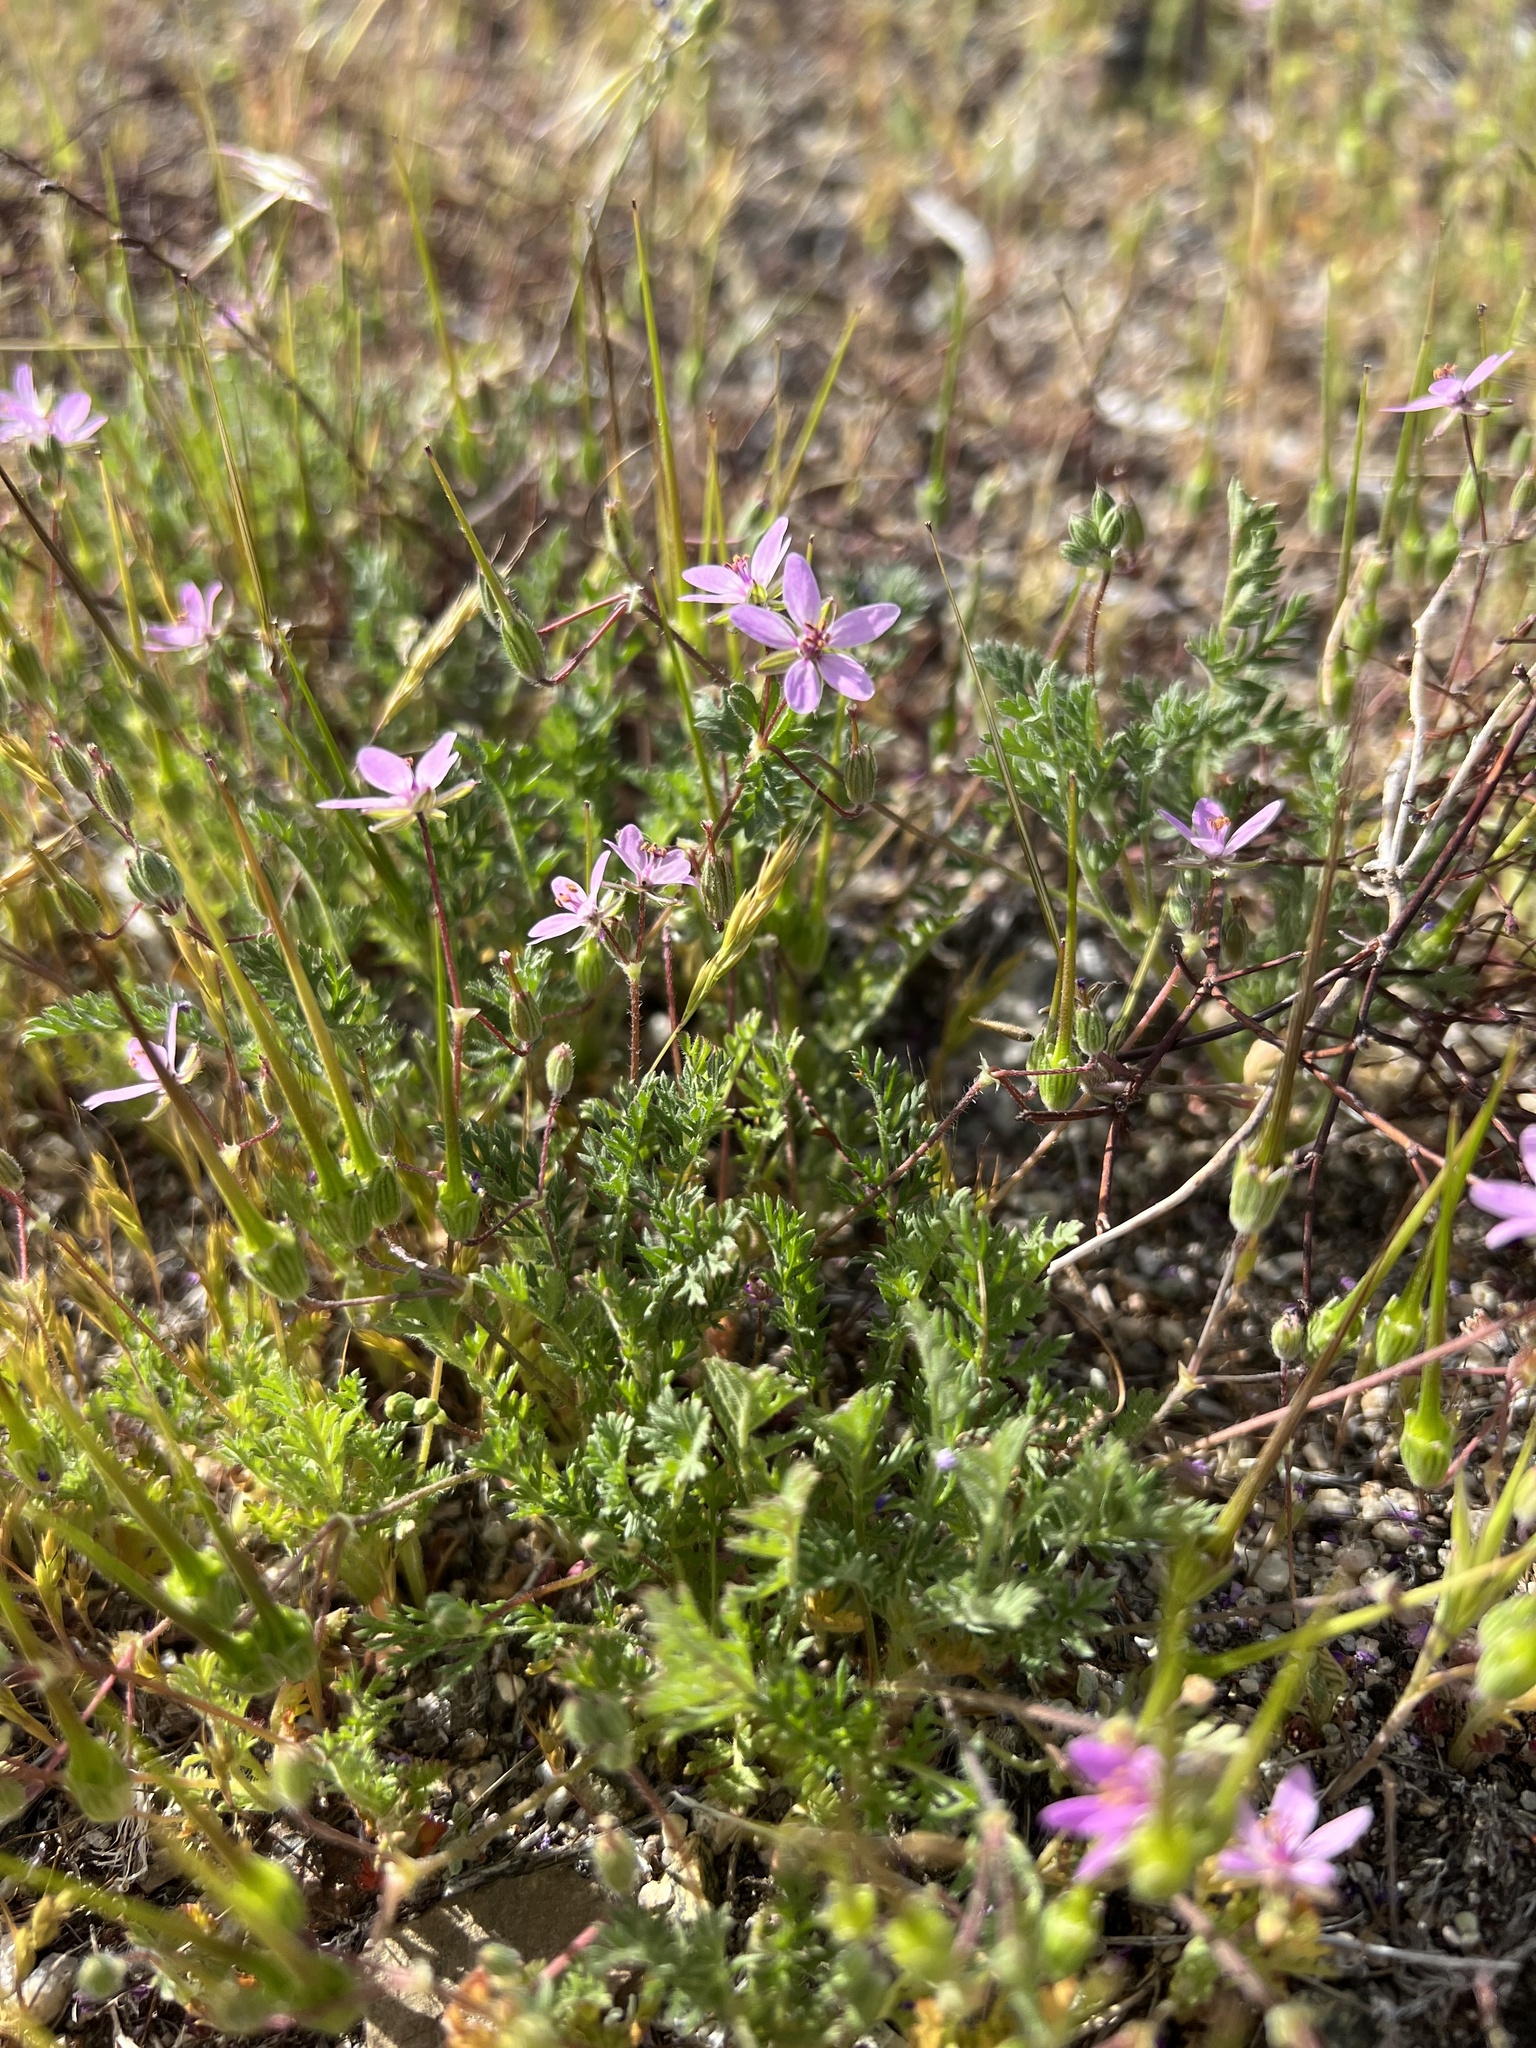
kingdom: Plantae
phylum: Tracheophyta
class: Magnoliopsida
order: Geraniales
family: Geraniaceae
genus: Erodium
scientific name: Erodium cicutarium
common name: Common stork's-bill
